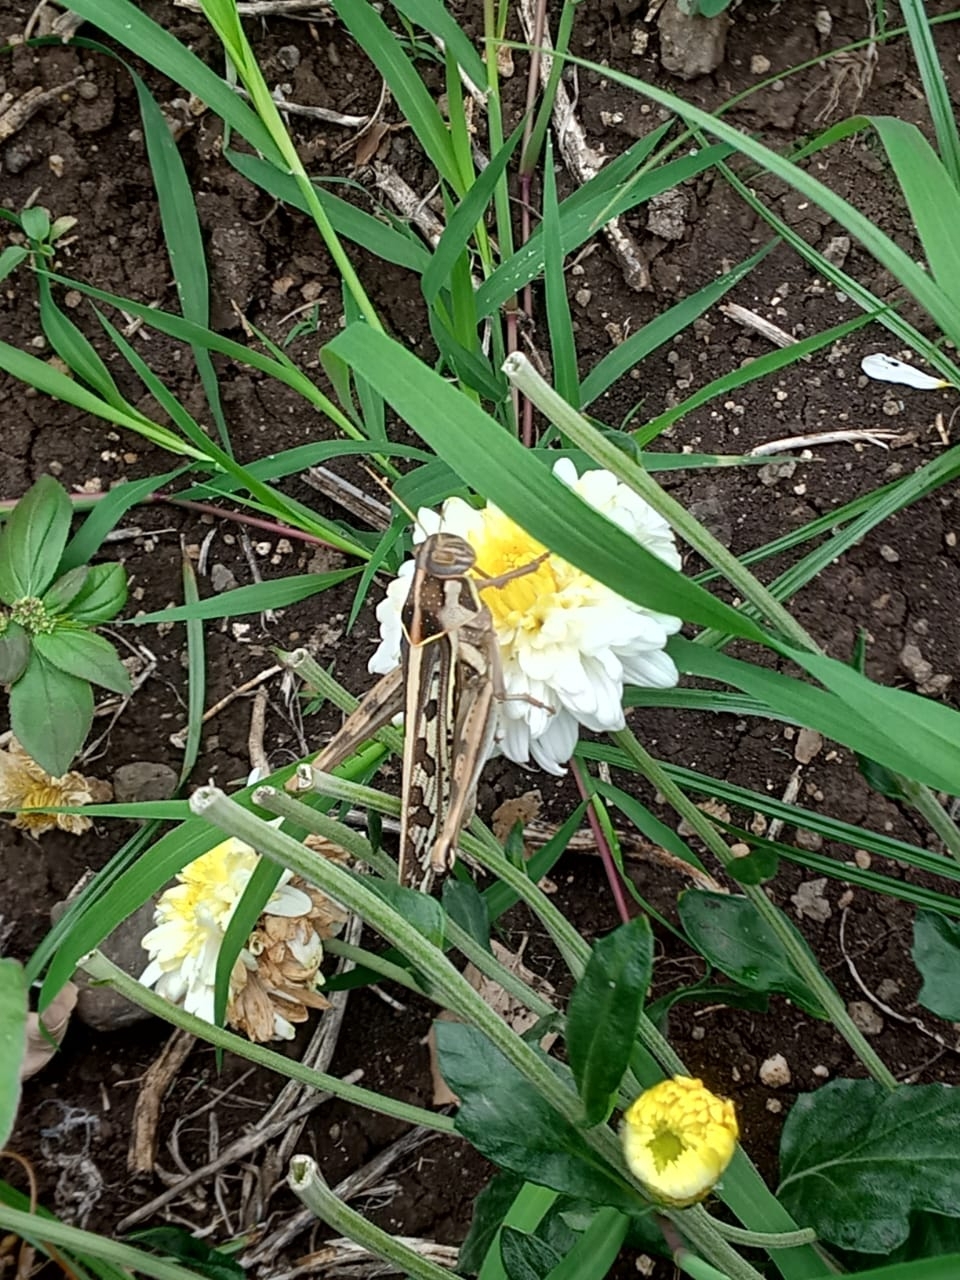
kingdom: Animalia
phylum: Arthropoda
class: Insecta
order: Orthoptera
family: Acrididae
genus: Cyrtacanthacris
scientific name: Cyrtacanthacris tatarica
